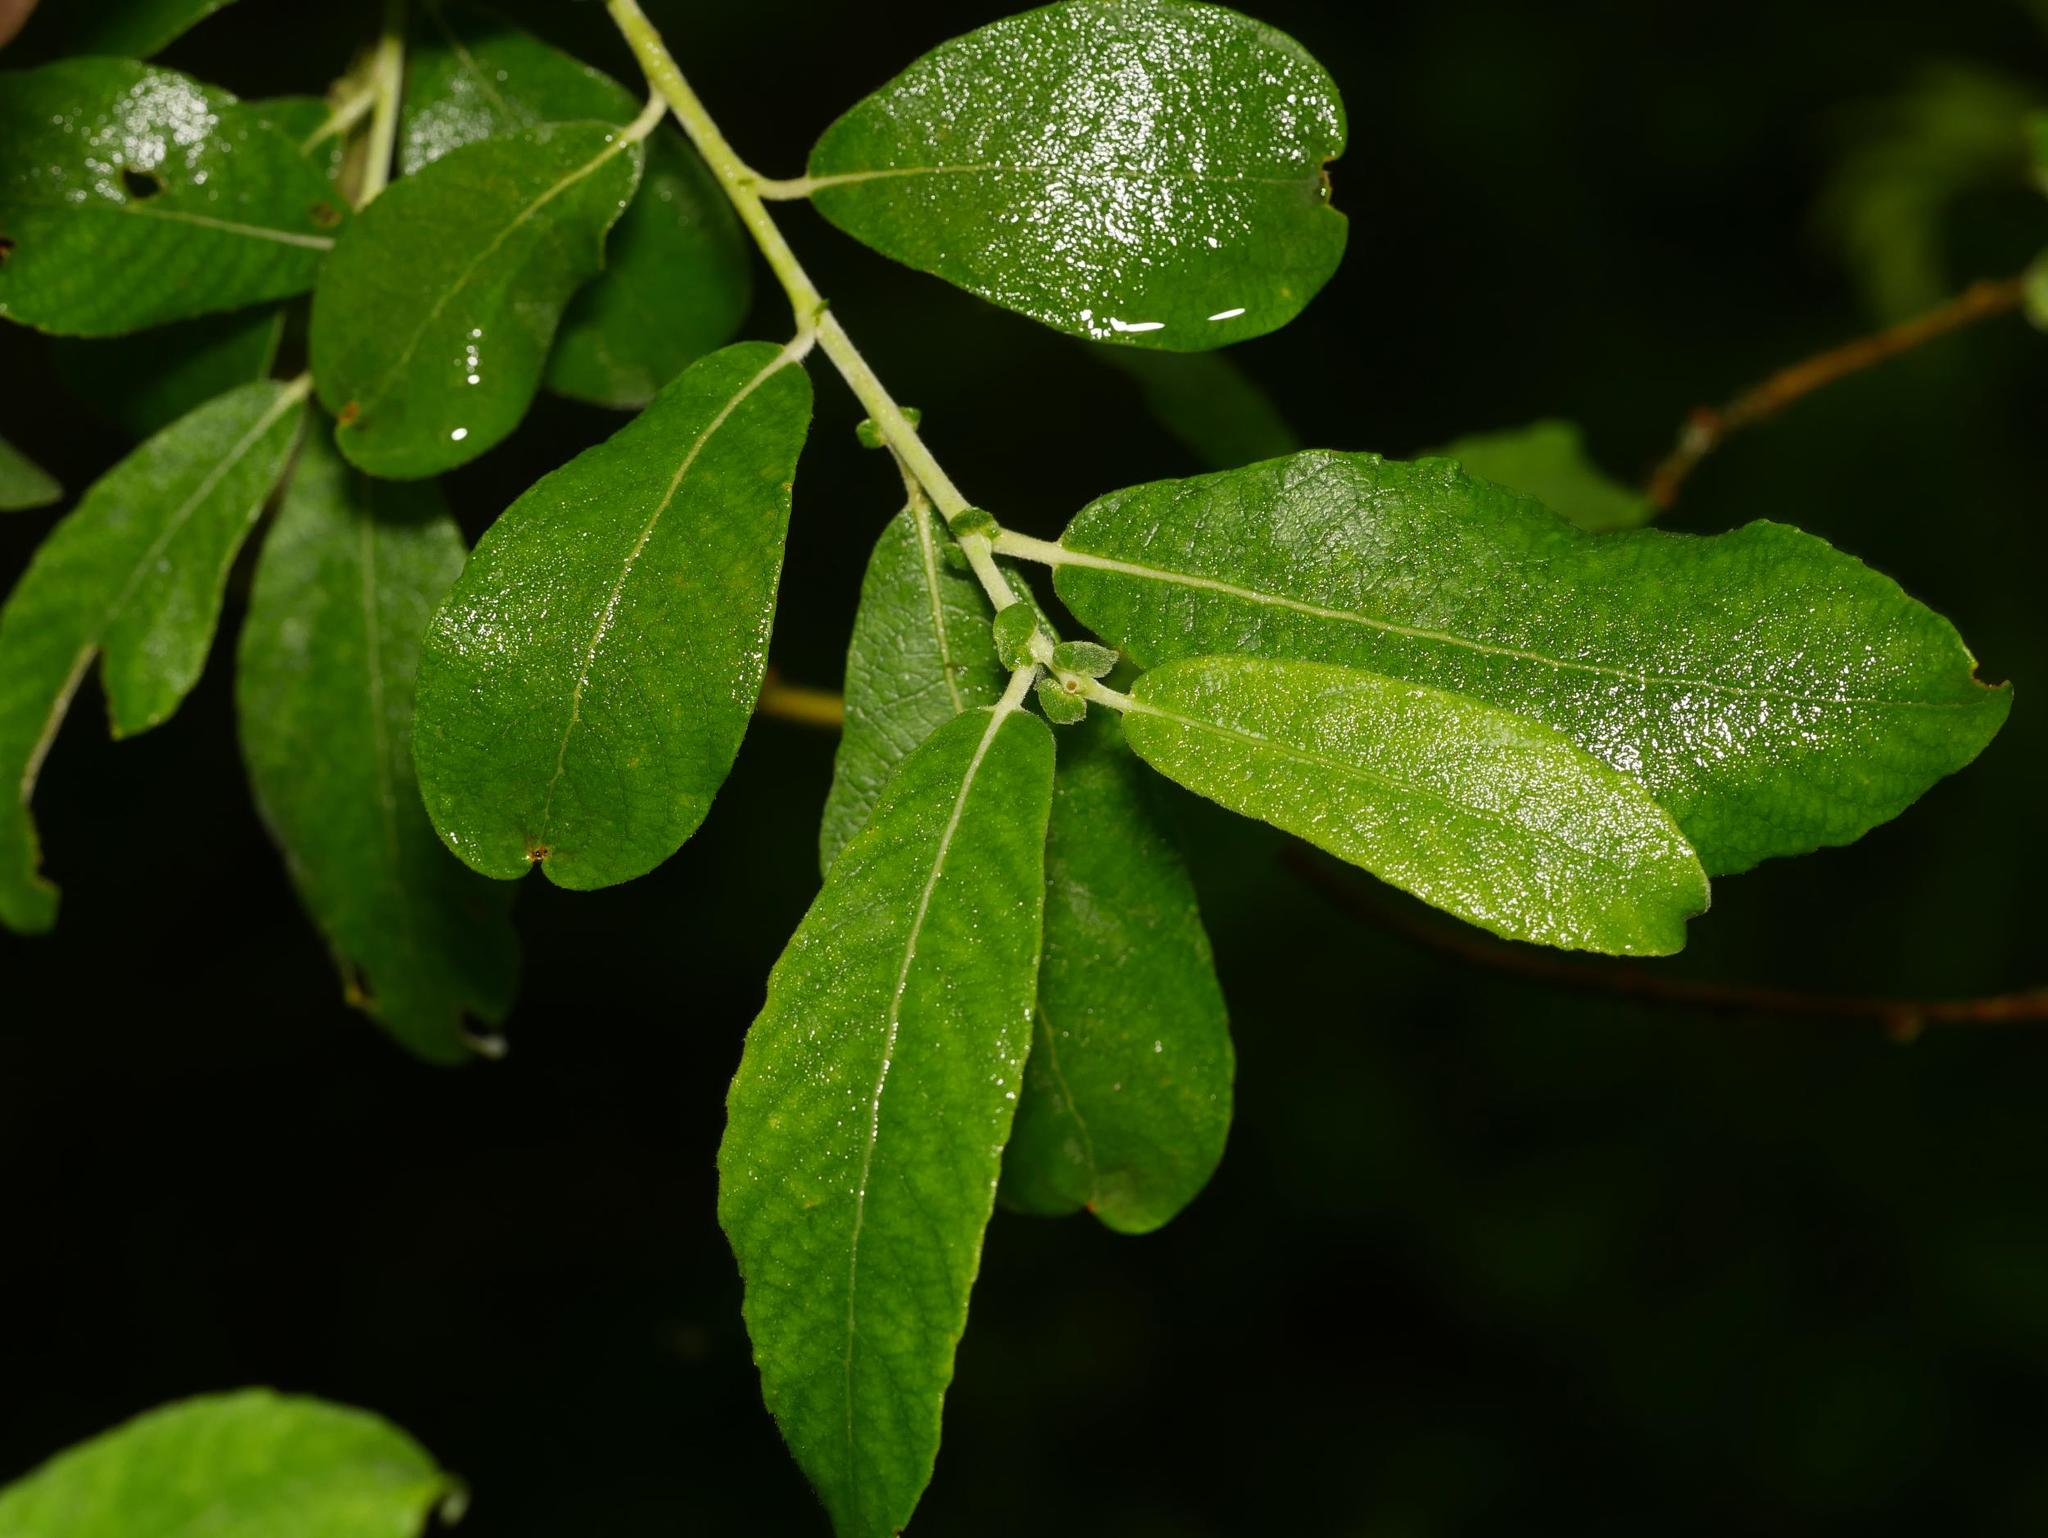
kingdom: Plantae
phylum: Tracheophyta
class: Magnoliopsida
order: Malpighiales
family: Salicaceae
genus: Salix
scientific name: Salix cinerea
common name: Common sallow
